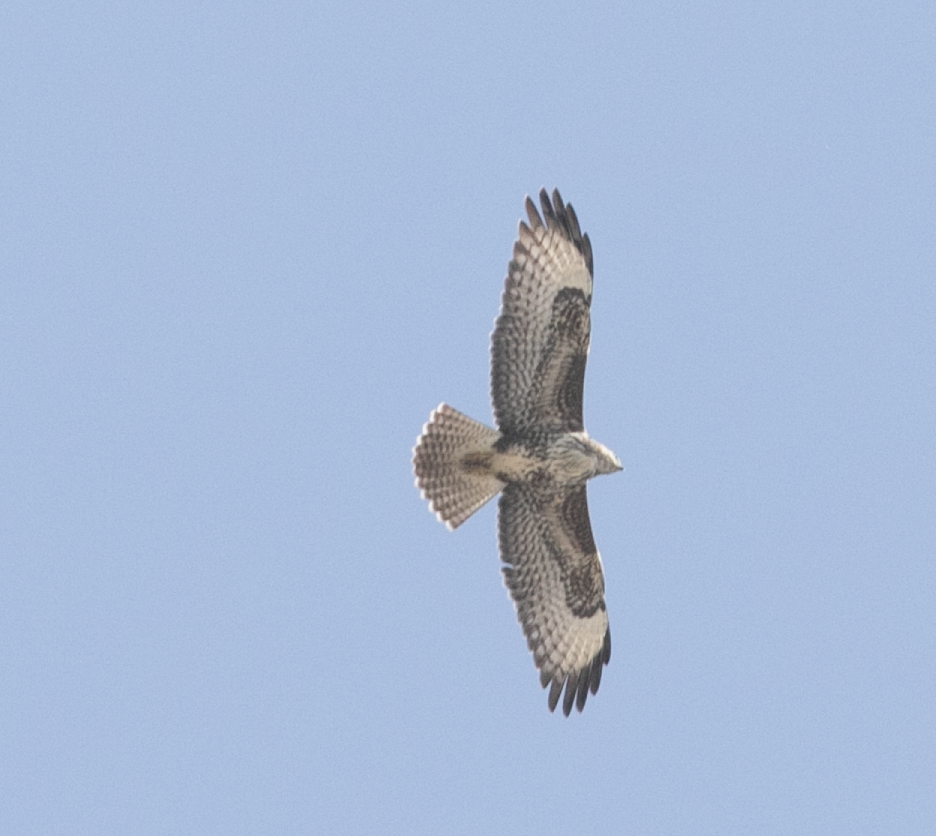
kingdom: Animalia
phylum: Chordata
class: Aves
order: Accipitriformes
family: Accipitridae
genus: Buteo
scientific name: Buteo buteo
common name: Common buzzard
